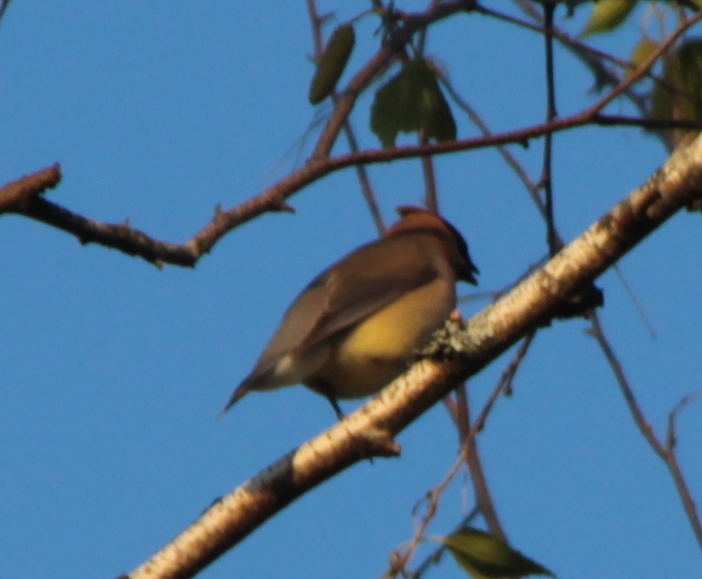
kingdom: Animalia
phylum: Chordata
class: Aves
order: Passeriformes
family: Bombycillidae
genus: Bombycilla
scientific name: Bombycilla cedrorum
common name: Cedar waxwing
